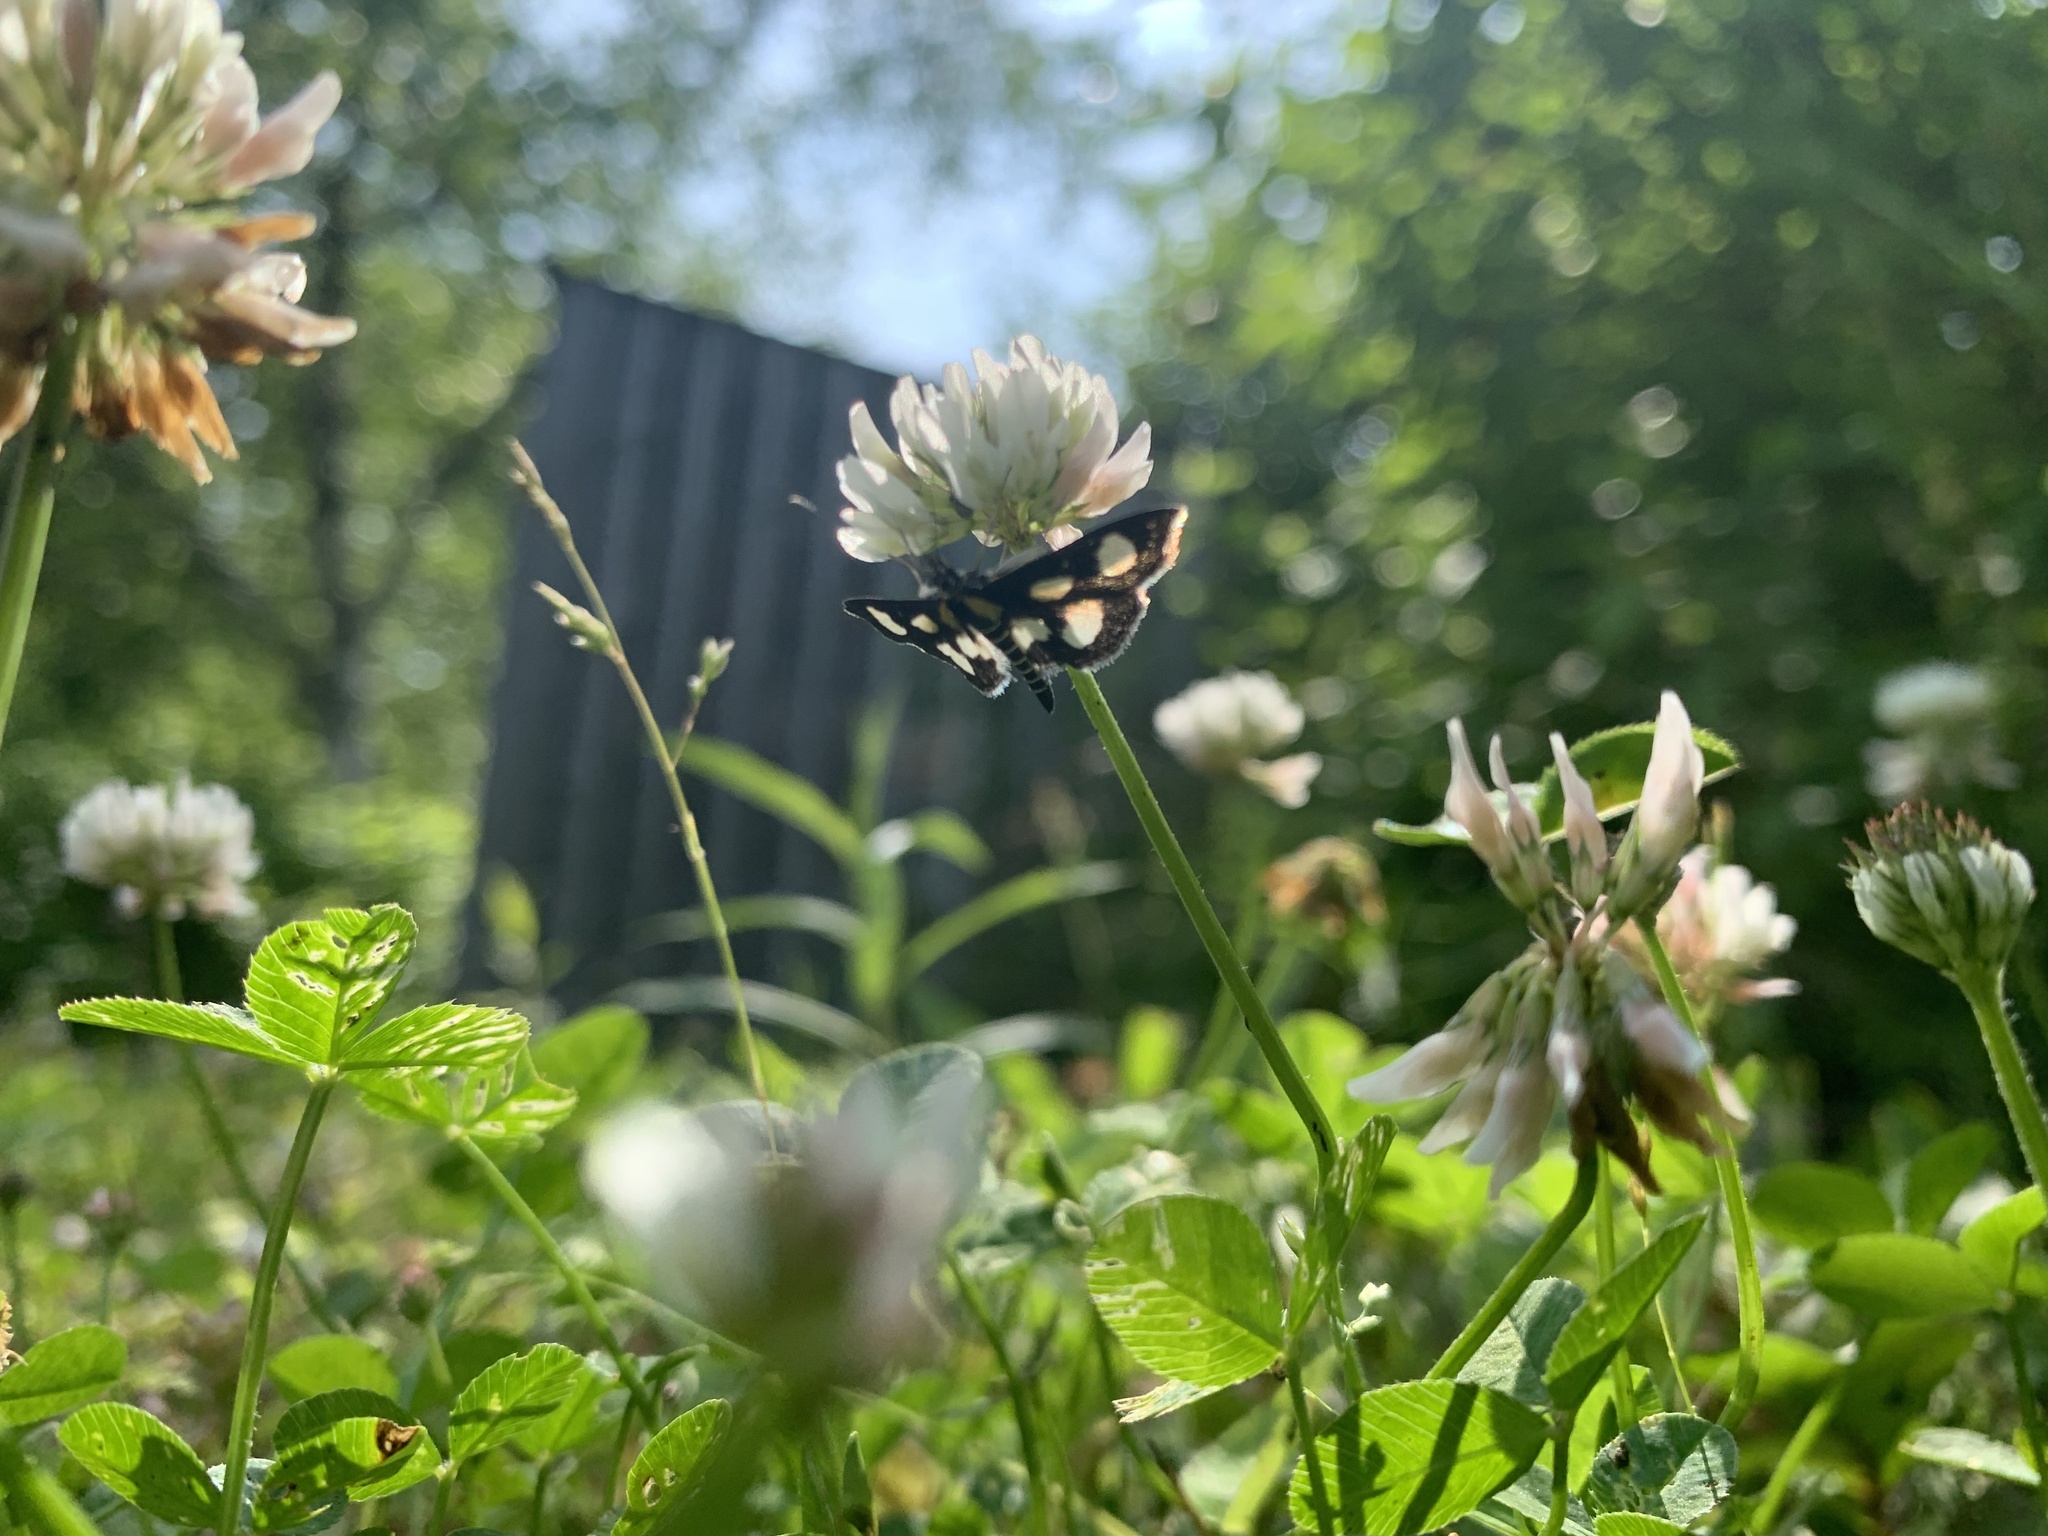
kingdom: Animalia
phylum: Arthropoda
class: Insecta
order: Lepidoptera
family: Crambidae
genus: Anania
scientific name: Anania funebris
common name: White-spotted sable moth
